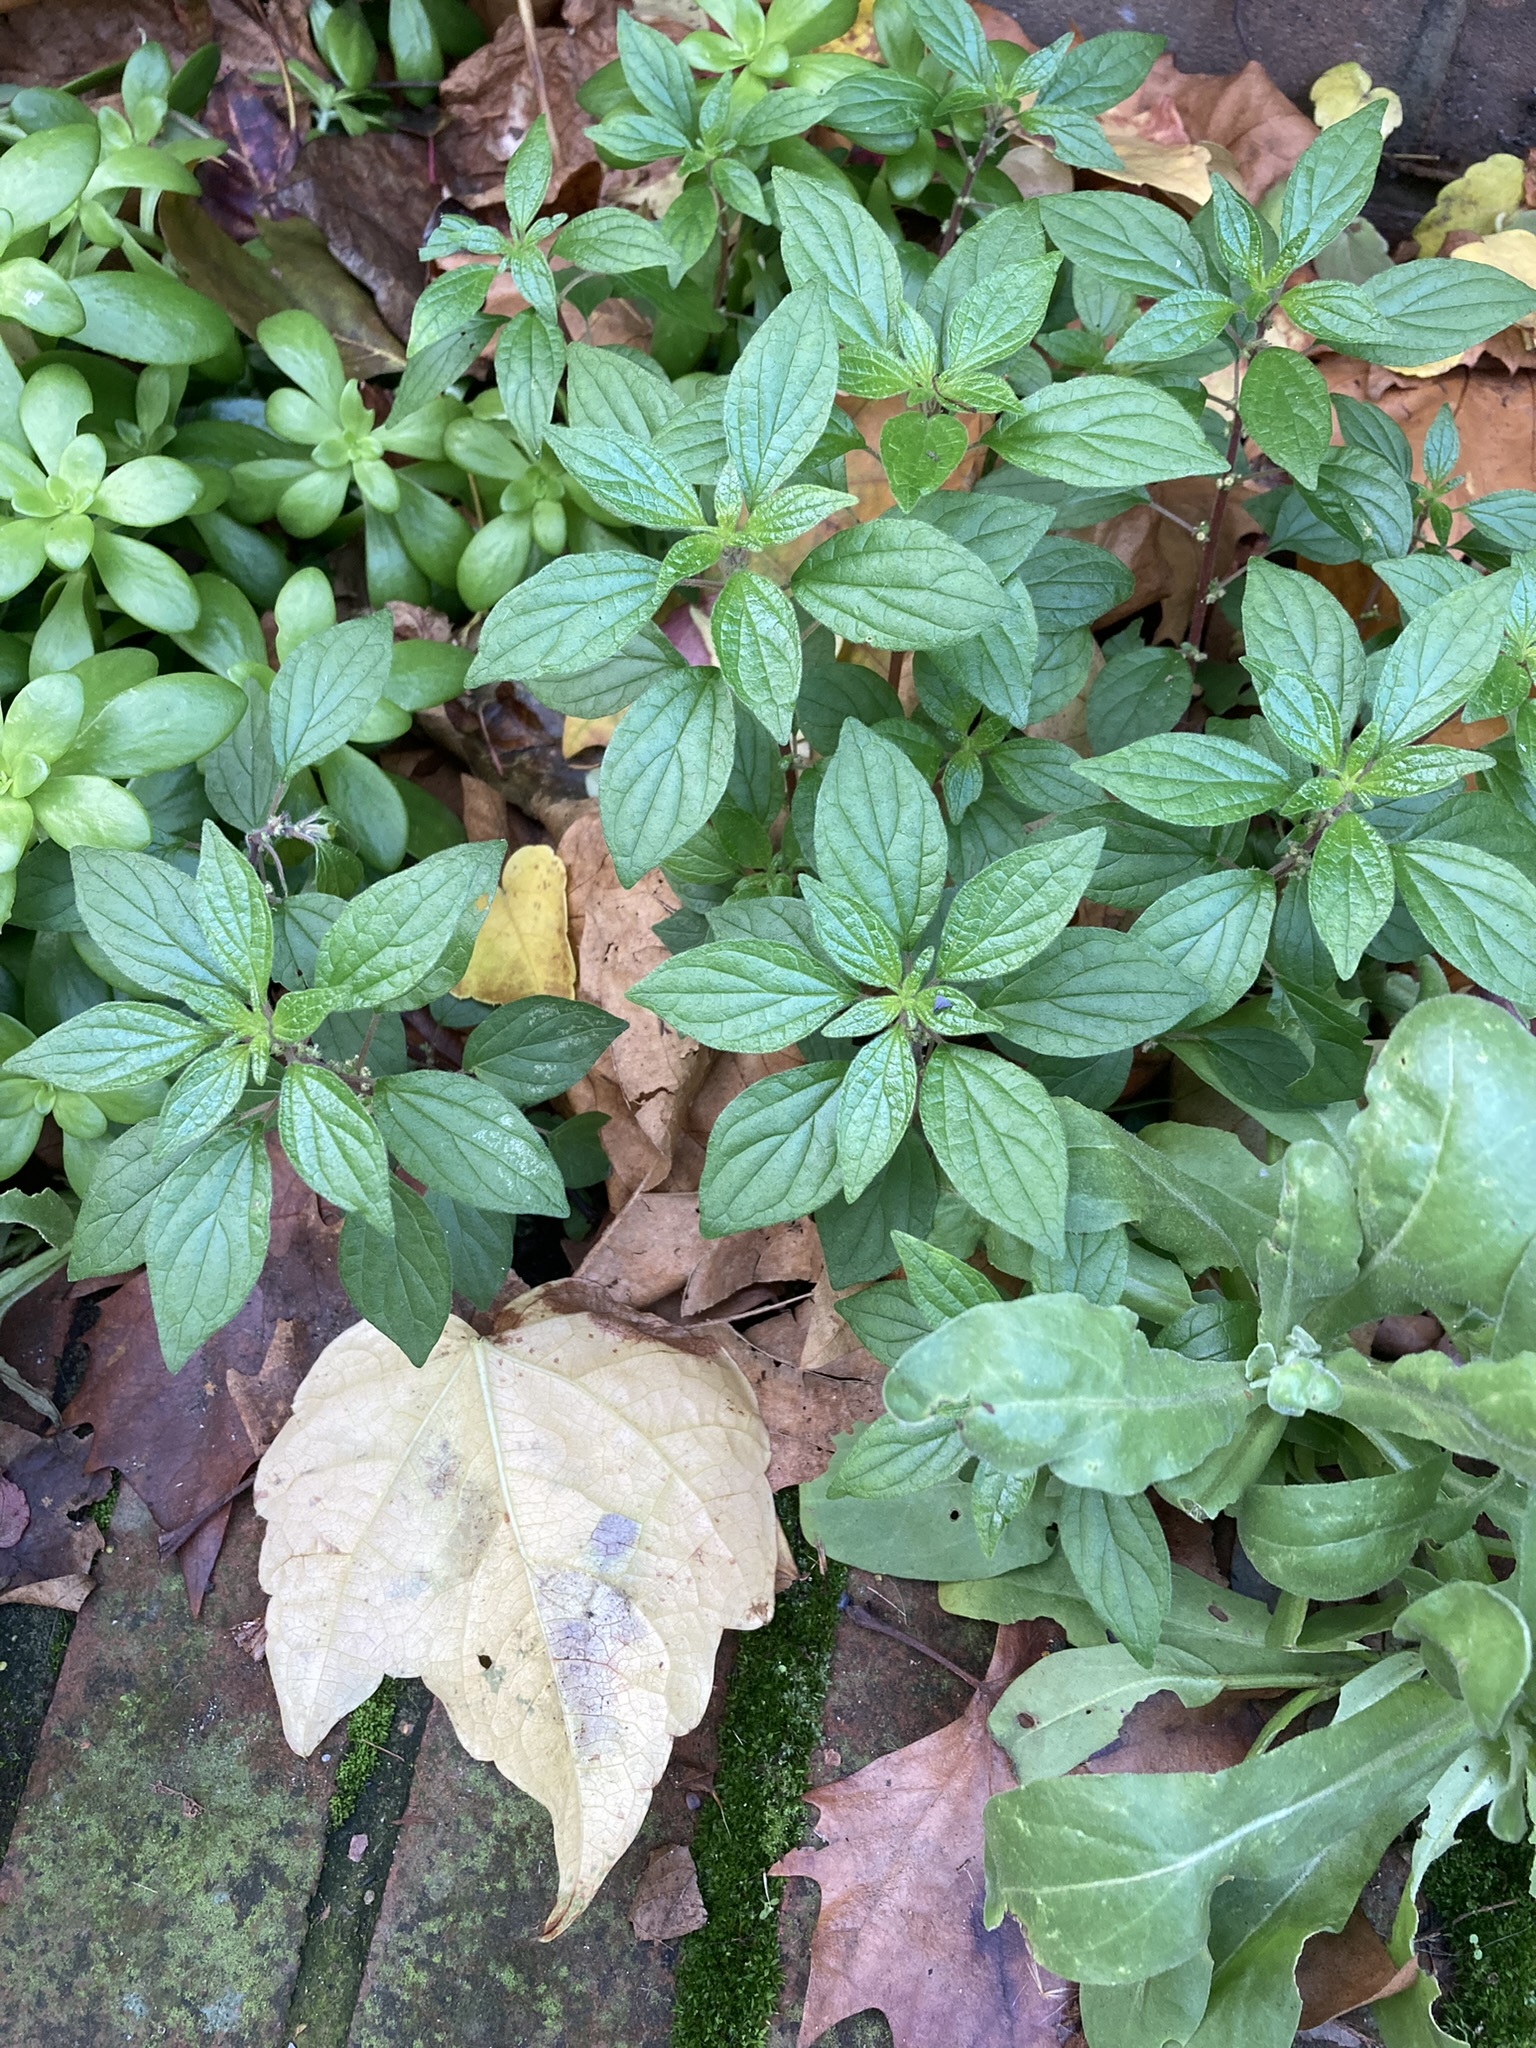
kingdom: Plantae
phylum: Tracheophyta
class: Magnoliopsida
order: Rosales
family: Urticaceae
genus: Parietaria
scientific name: Parietaria judaica
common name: Pellitory-of-the-wall
